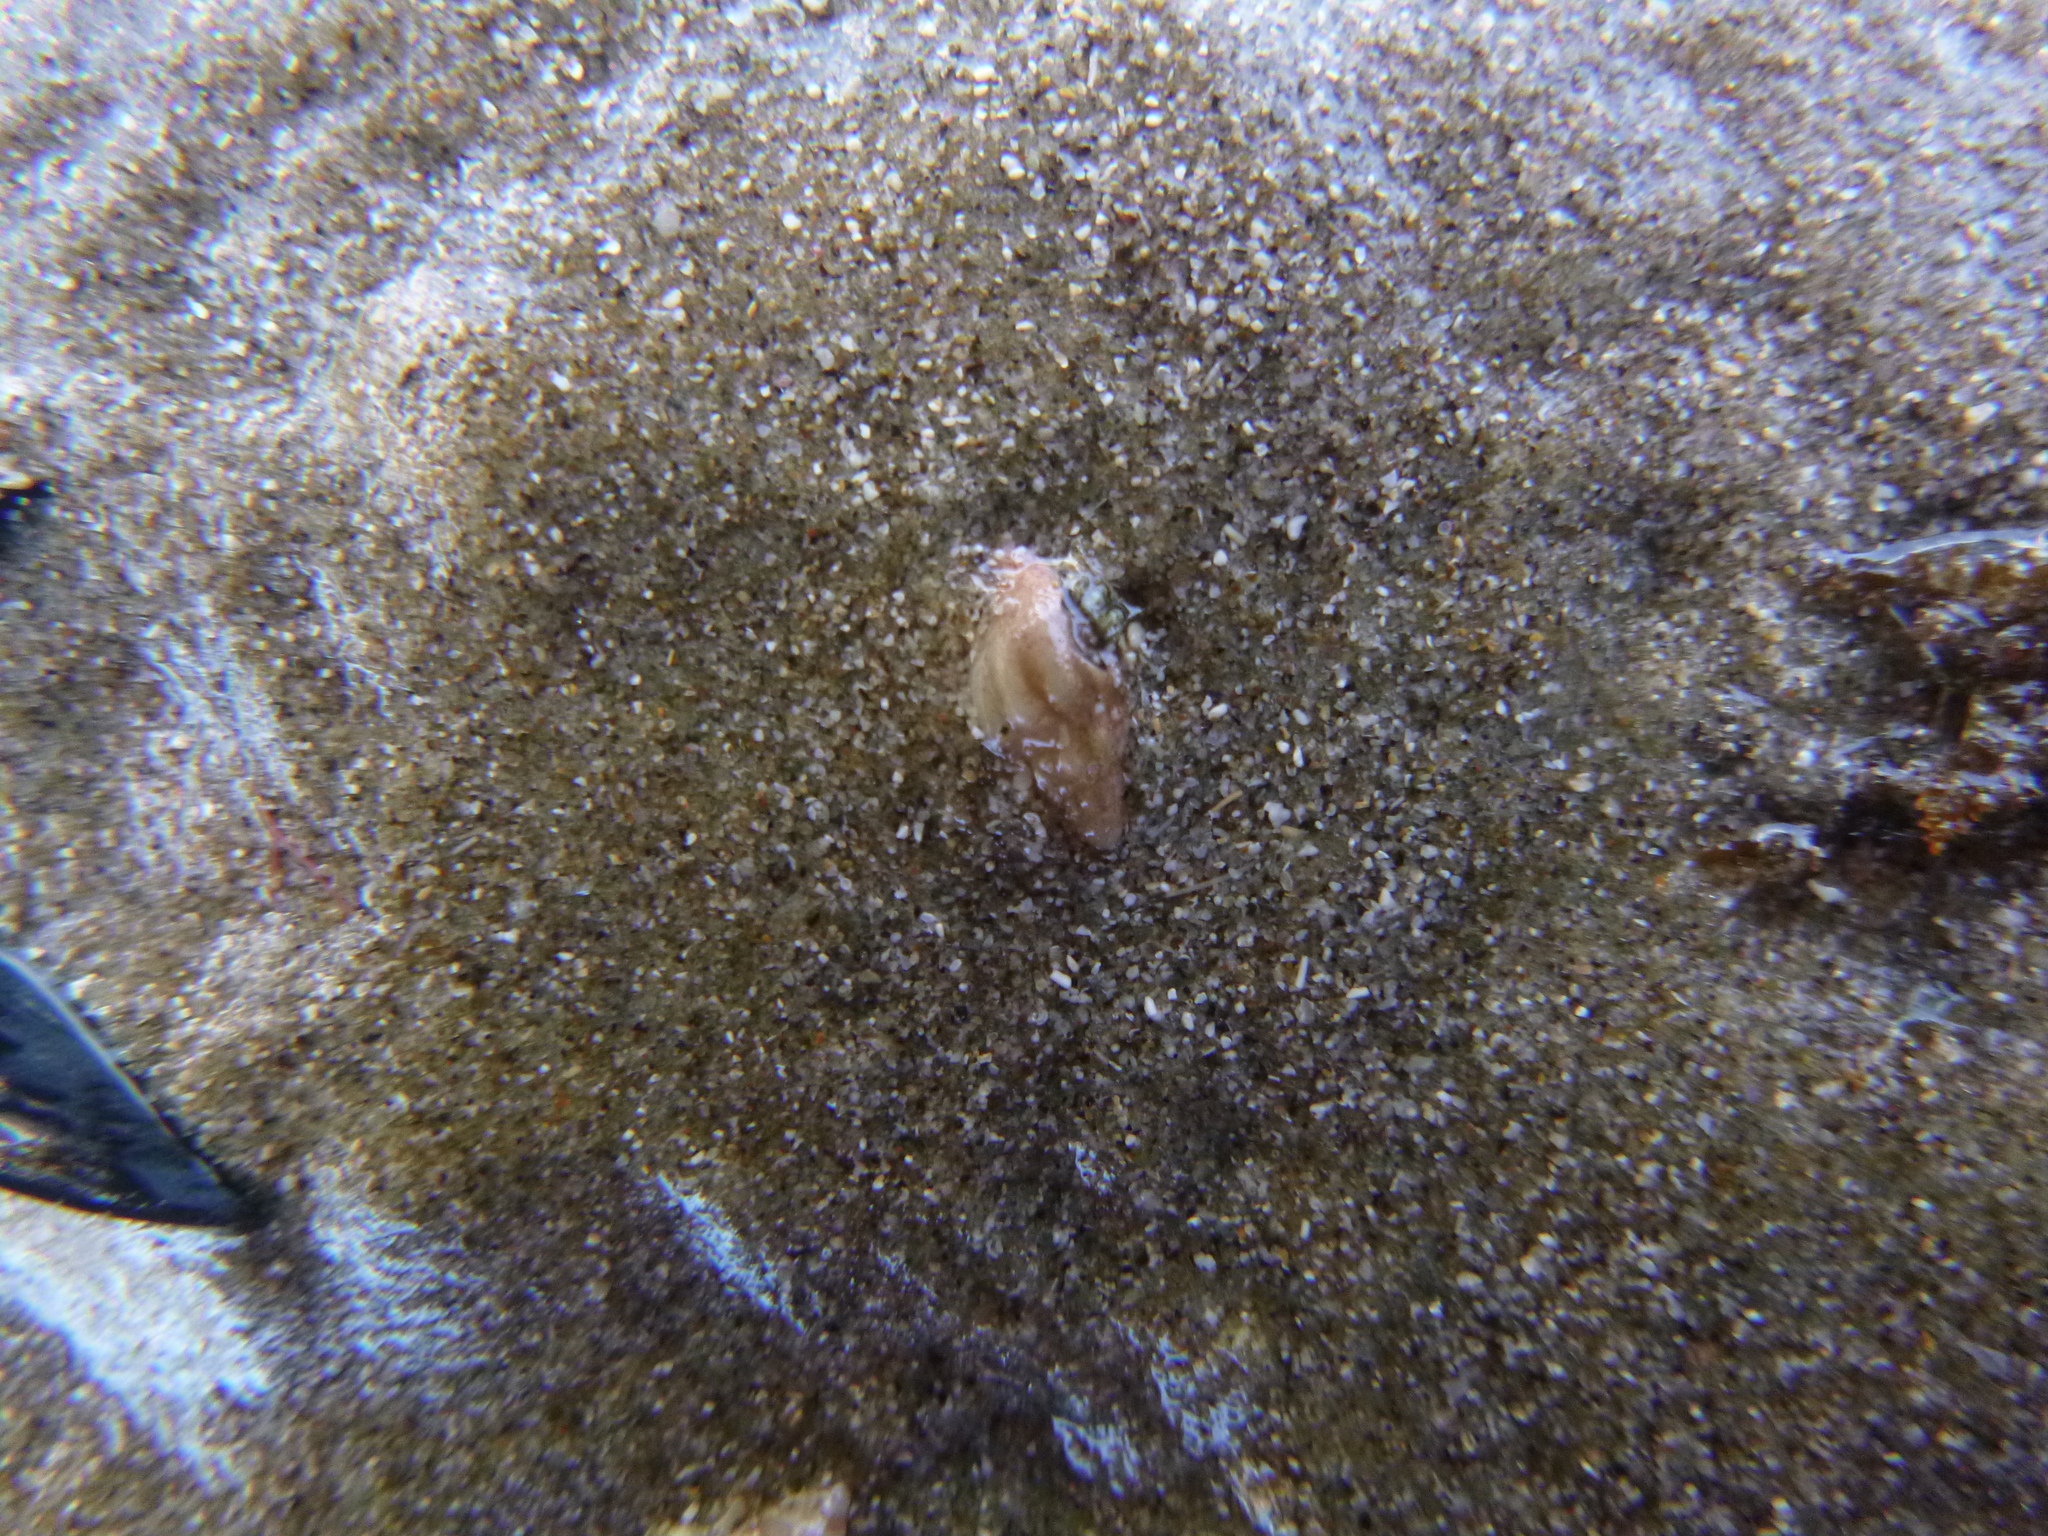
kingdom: Animalia
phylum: Mollusca
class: Gastropoda
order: Neogastropoda
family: Cominellidae
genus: Cominella
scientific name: Cominella quoyana
